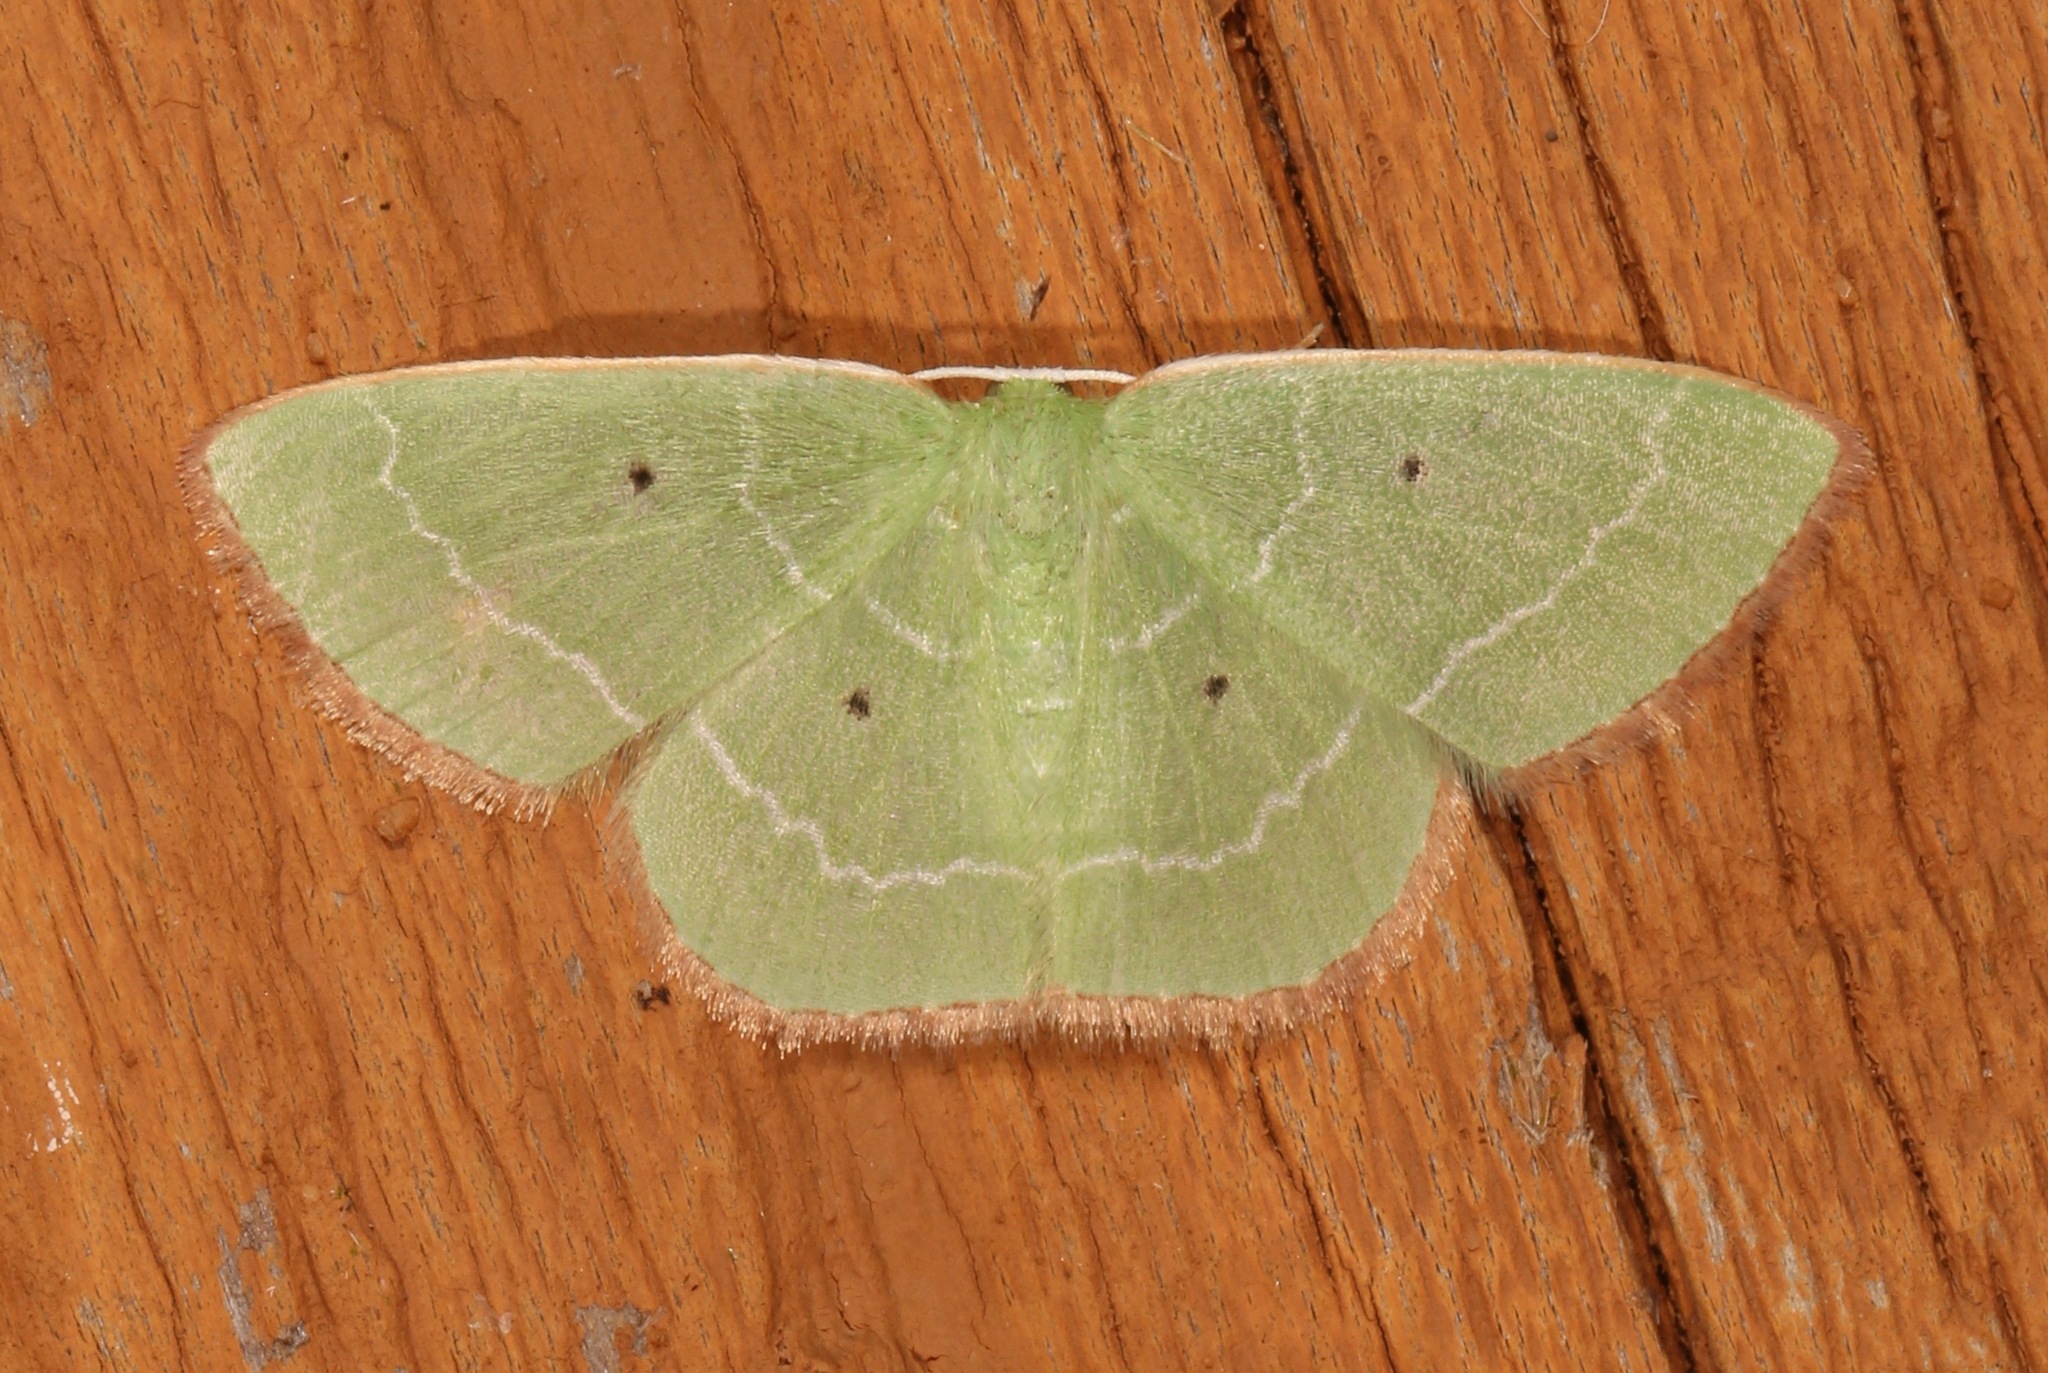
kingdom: Animalia
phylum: Arthropoda
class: Insecta
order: Lepidoptera
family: Geometridae
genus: Nemoria
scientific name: Nemoria elfa
